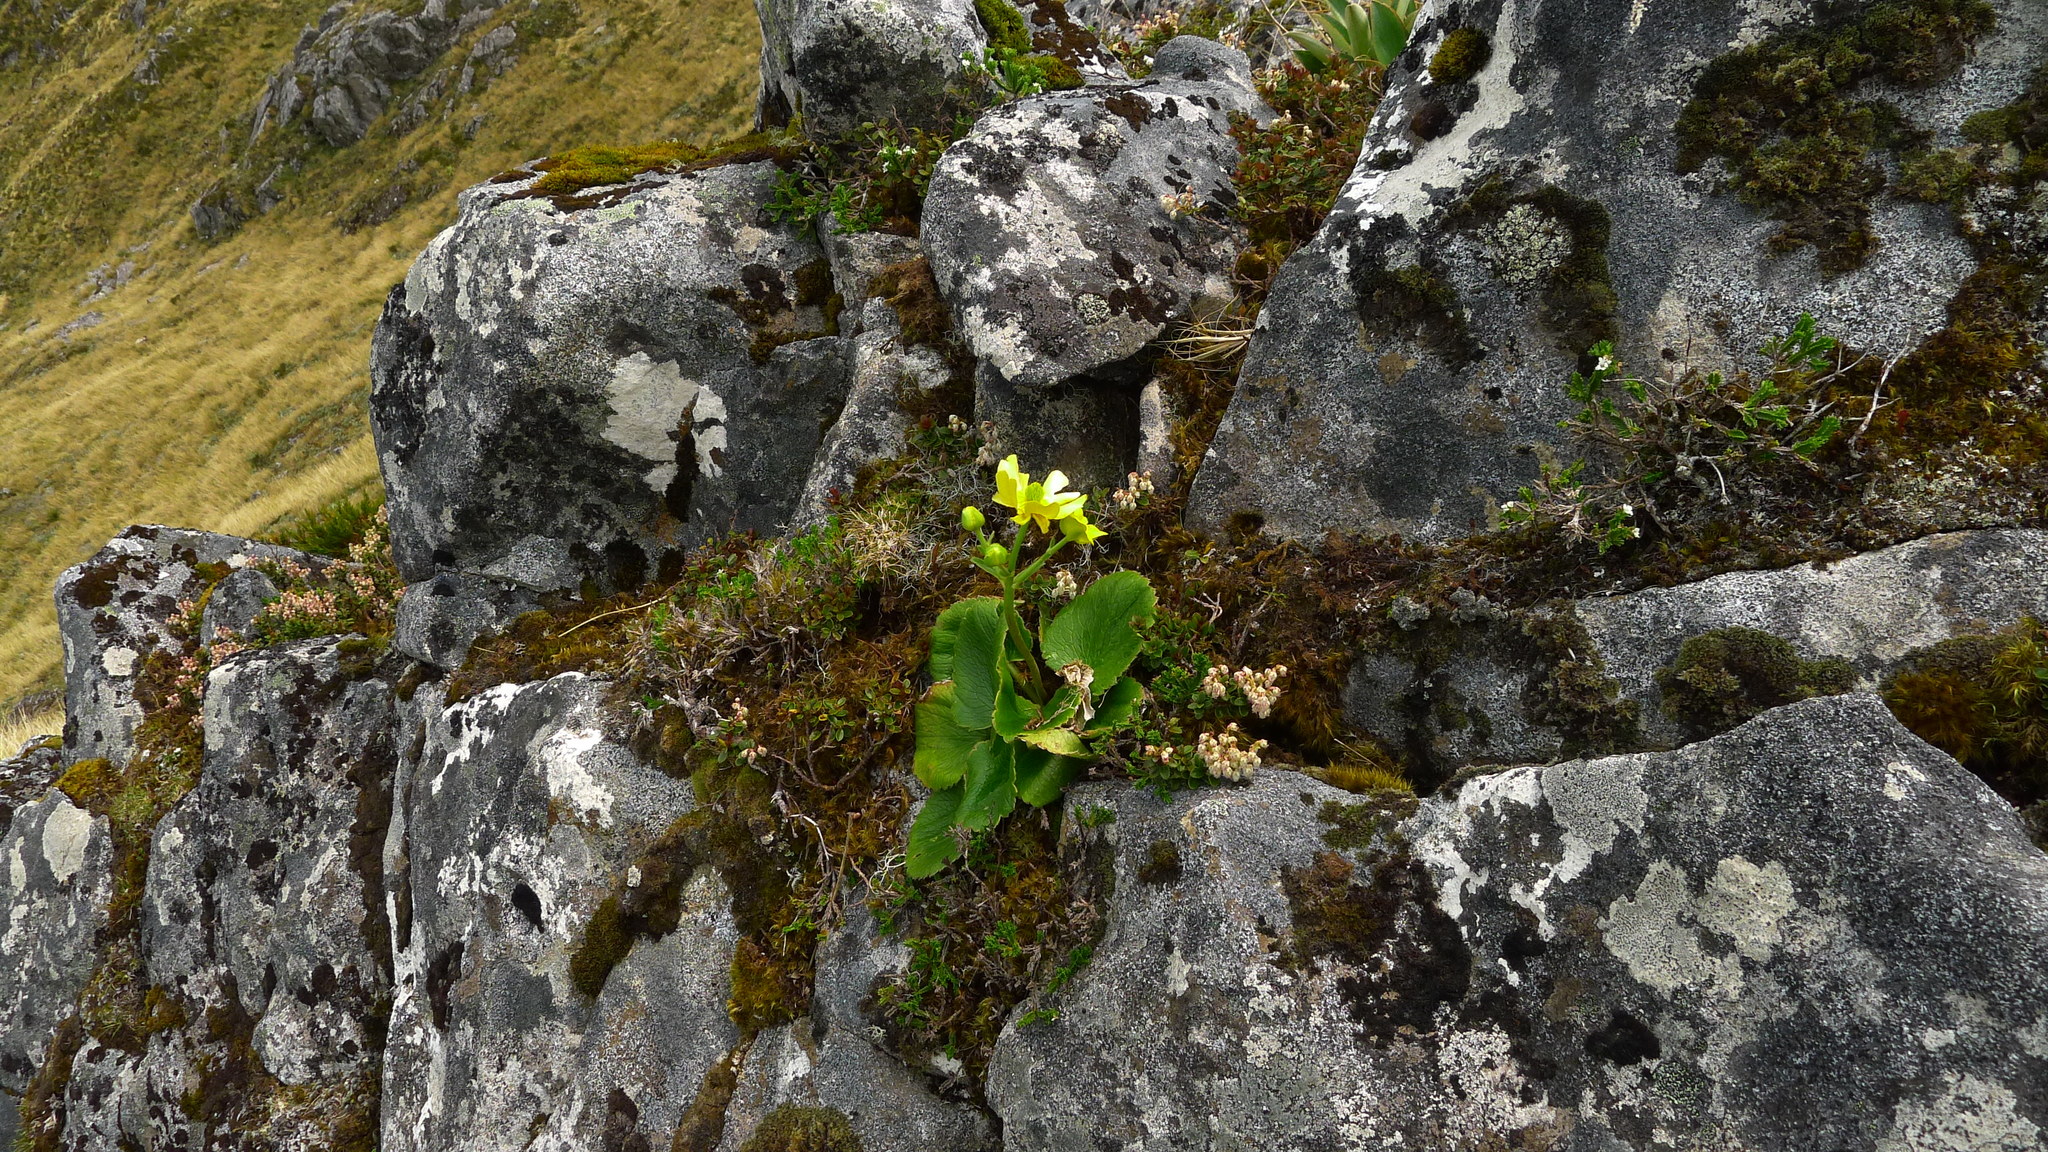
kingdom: Plantae
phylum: Tracheophyta
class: Magnoliopsida
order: Ranunculales
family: Ranunculaceae
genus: Ranunculus
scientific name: Ranunculus insignis
